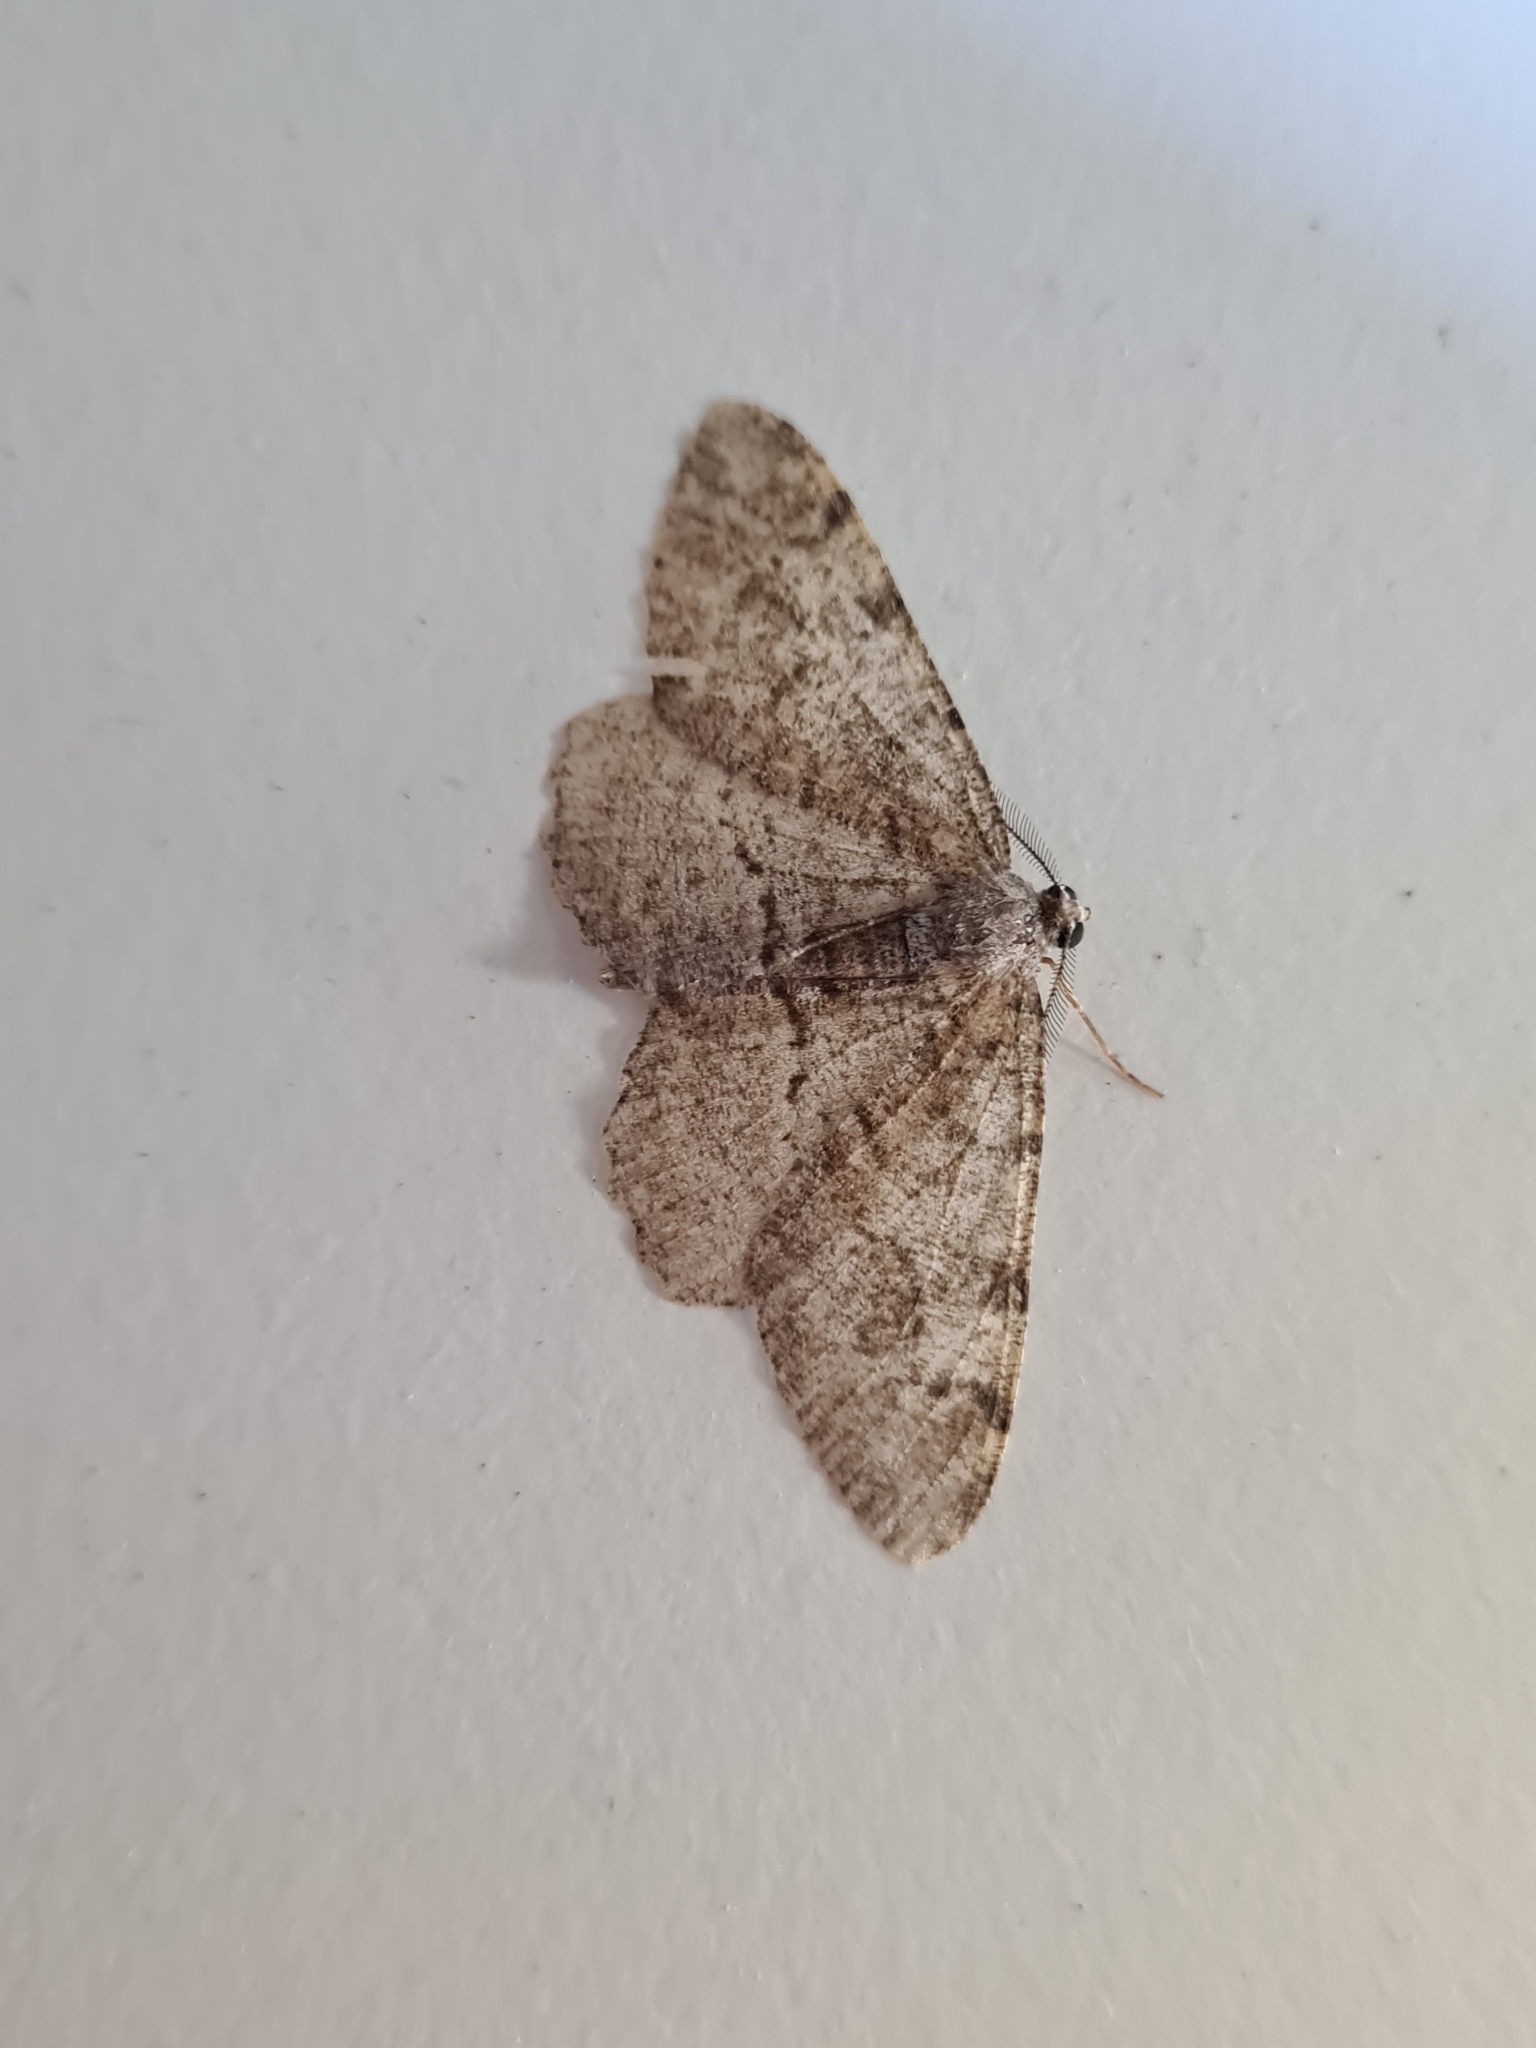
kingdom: Animalia
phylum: Arthropoda
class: Insecta
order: Lepidoptera
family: Geometridae
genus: Alcis
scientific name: Alcis repandata
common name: Mottled beauty
